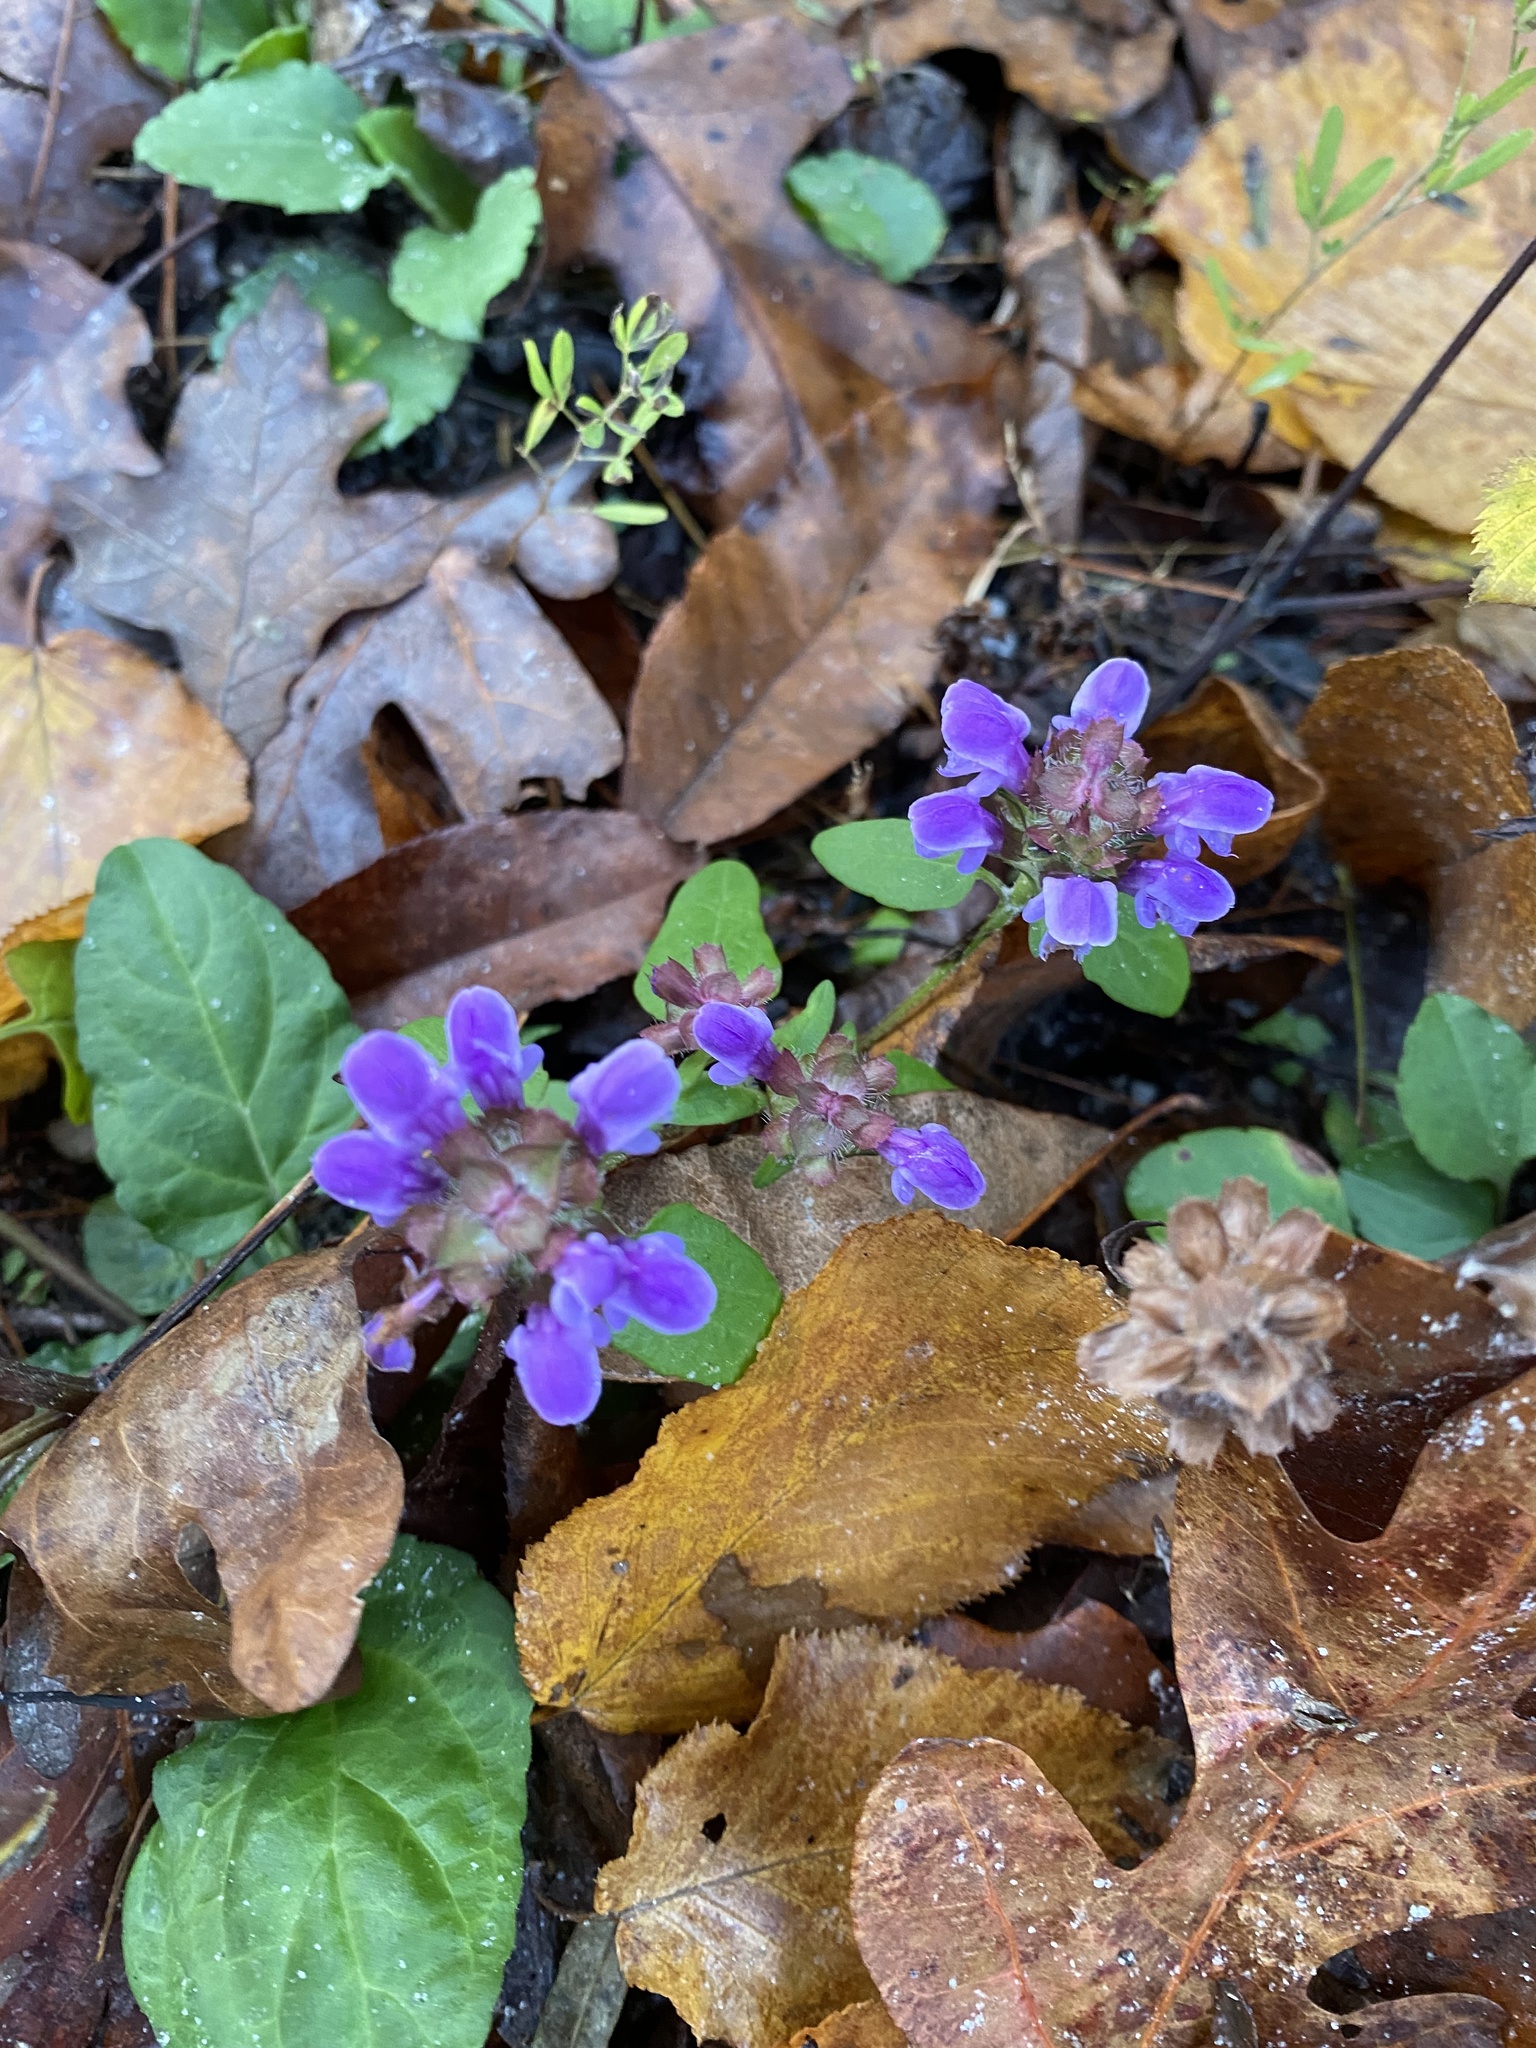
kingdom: Plantae
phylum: Tracheophyta
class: Magnoliopsida
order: Lamiales
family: Lamiaceae
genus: Prunella
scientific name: Prunella vulgaris
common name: Heal-all
